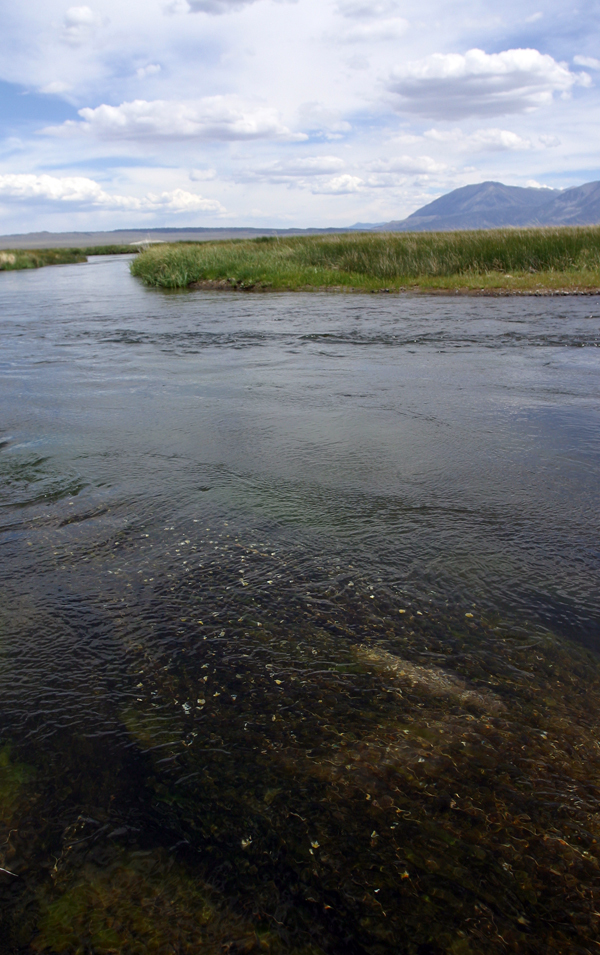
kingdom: Plantae
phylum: Tracheophyta
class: Magnoliopsida
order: Ranunculales
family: Ranunculaceae
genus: Ranunculus
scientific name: Ranunculus trichophyllus
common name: Thread-leaved water-crowfoot
